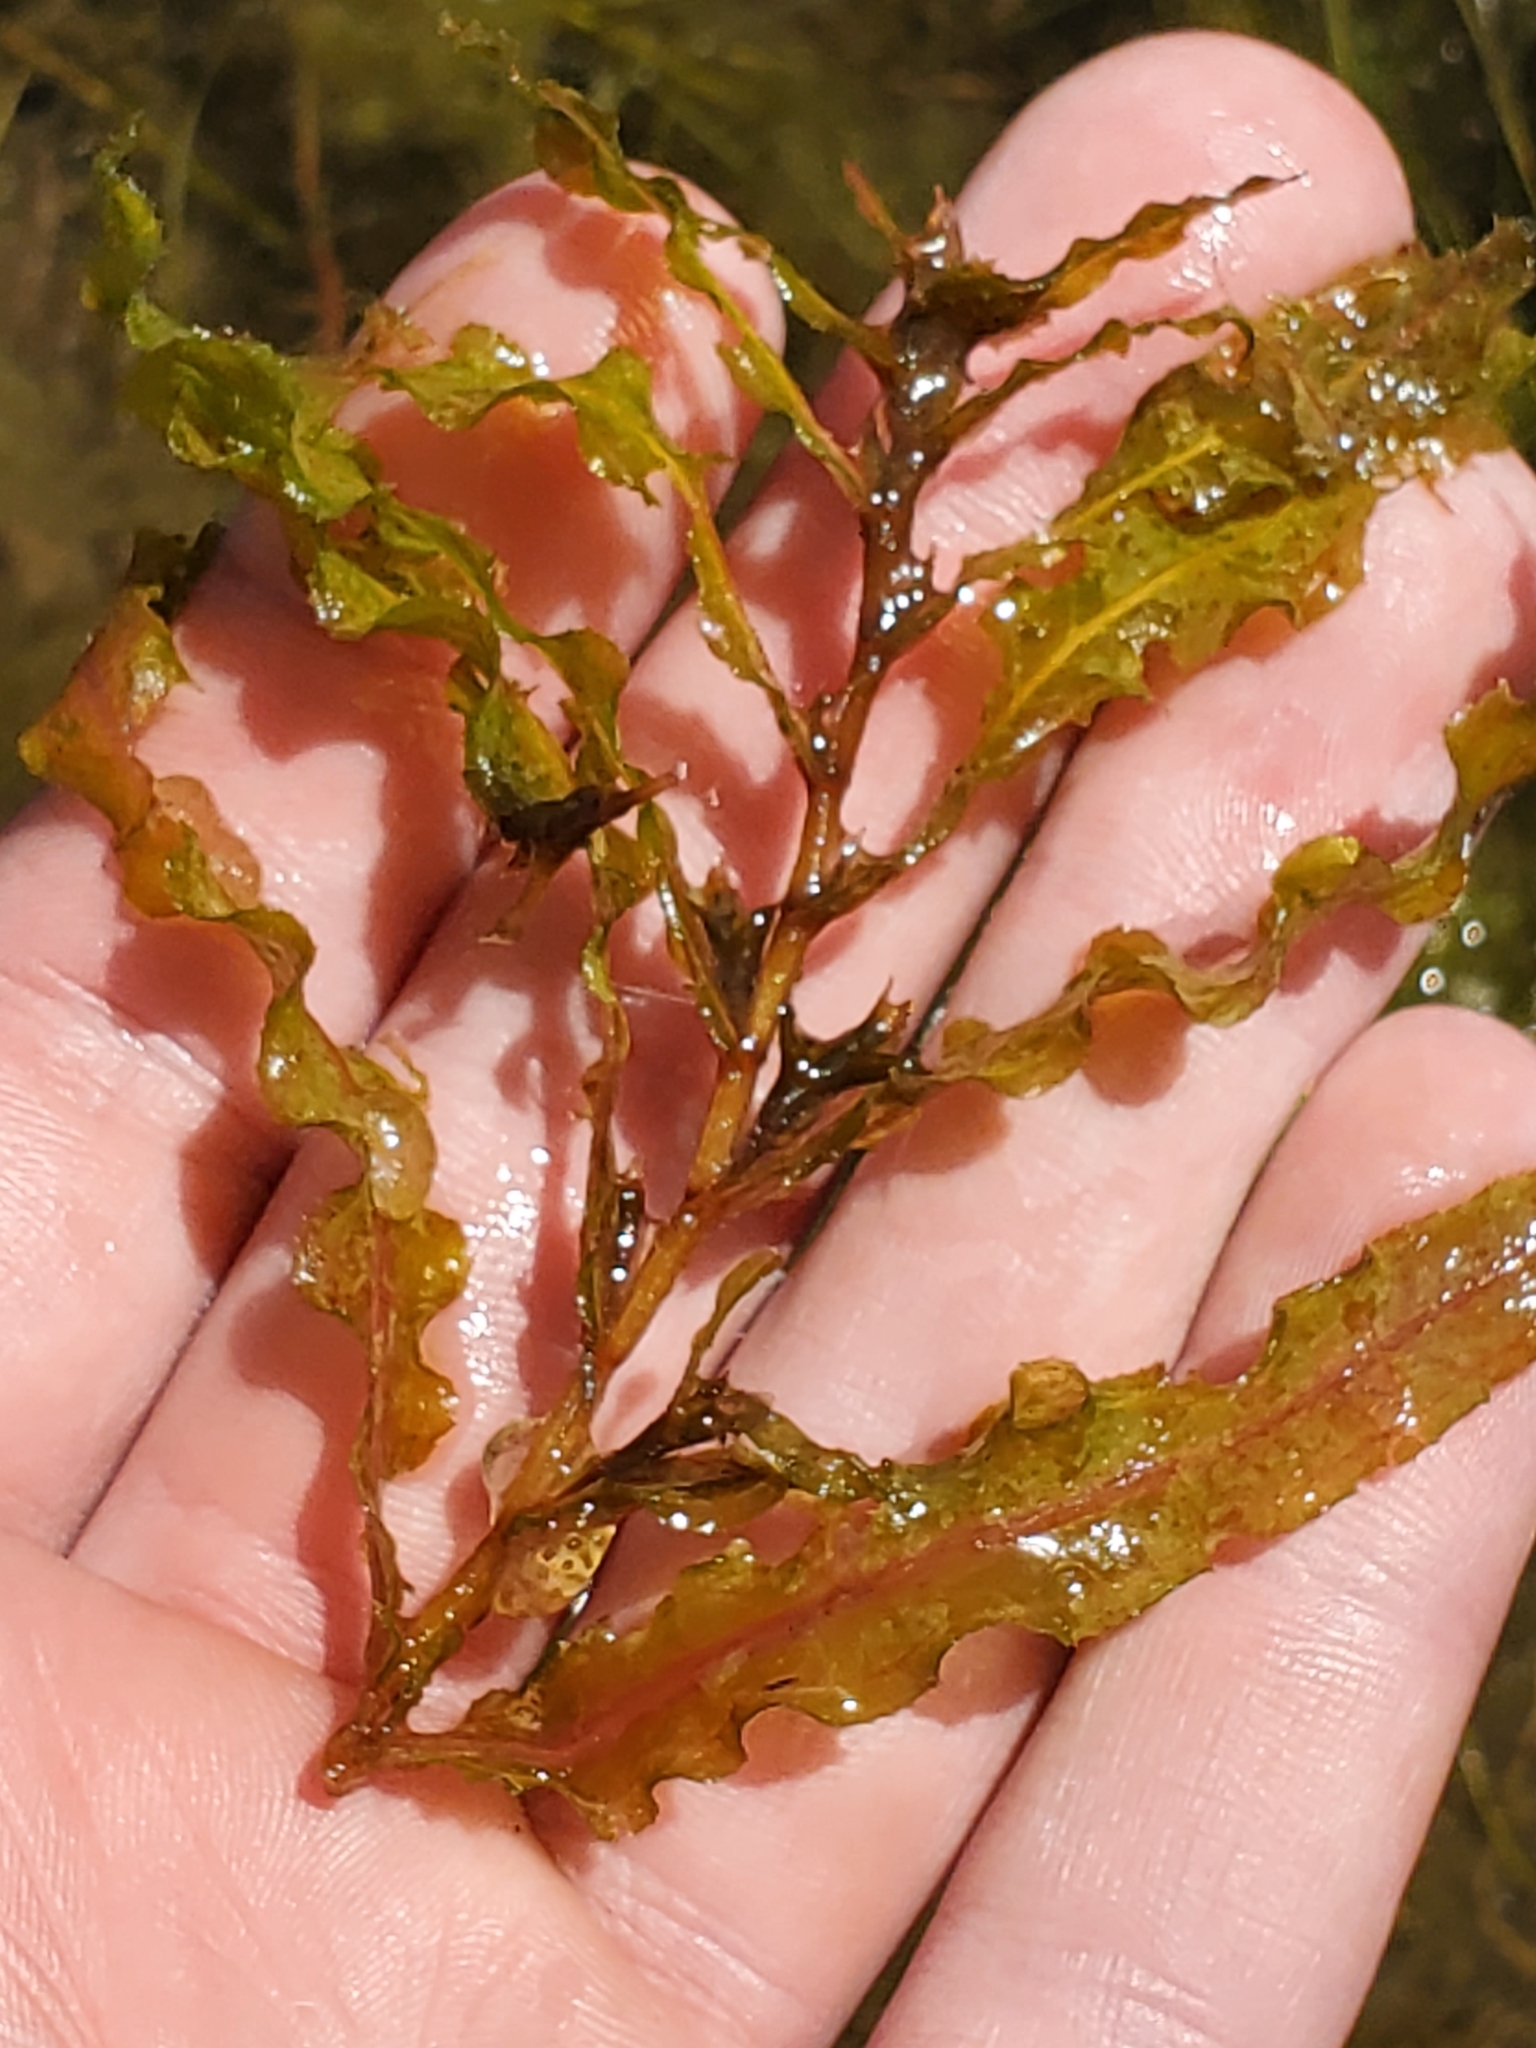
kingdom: Plantae
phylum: Tracheophyta
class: Liliopsida
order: Alismatales
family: Potamogetonaceae
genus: Potamogeton
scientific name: Potamogeton crispus
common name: Curled pondweed
